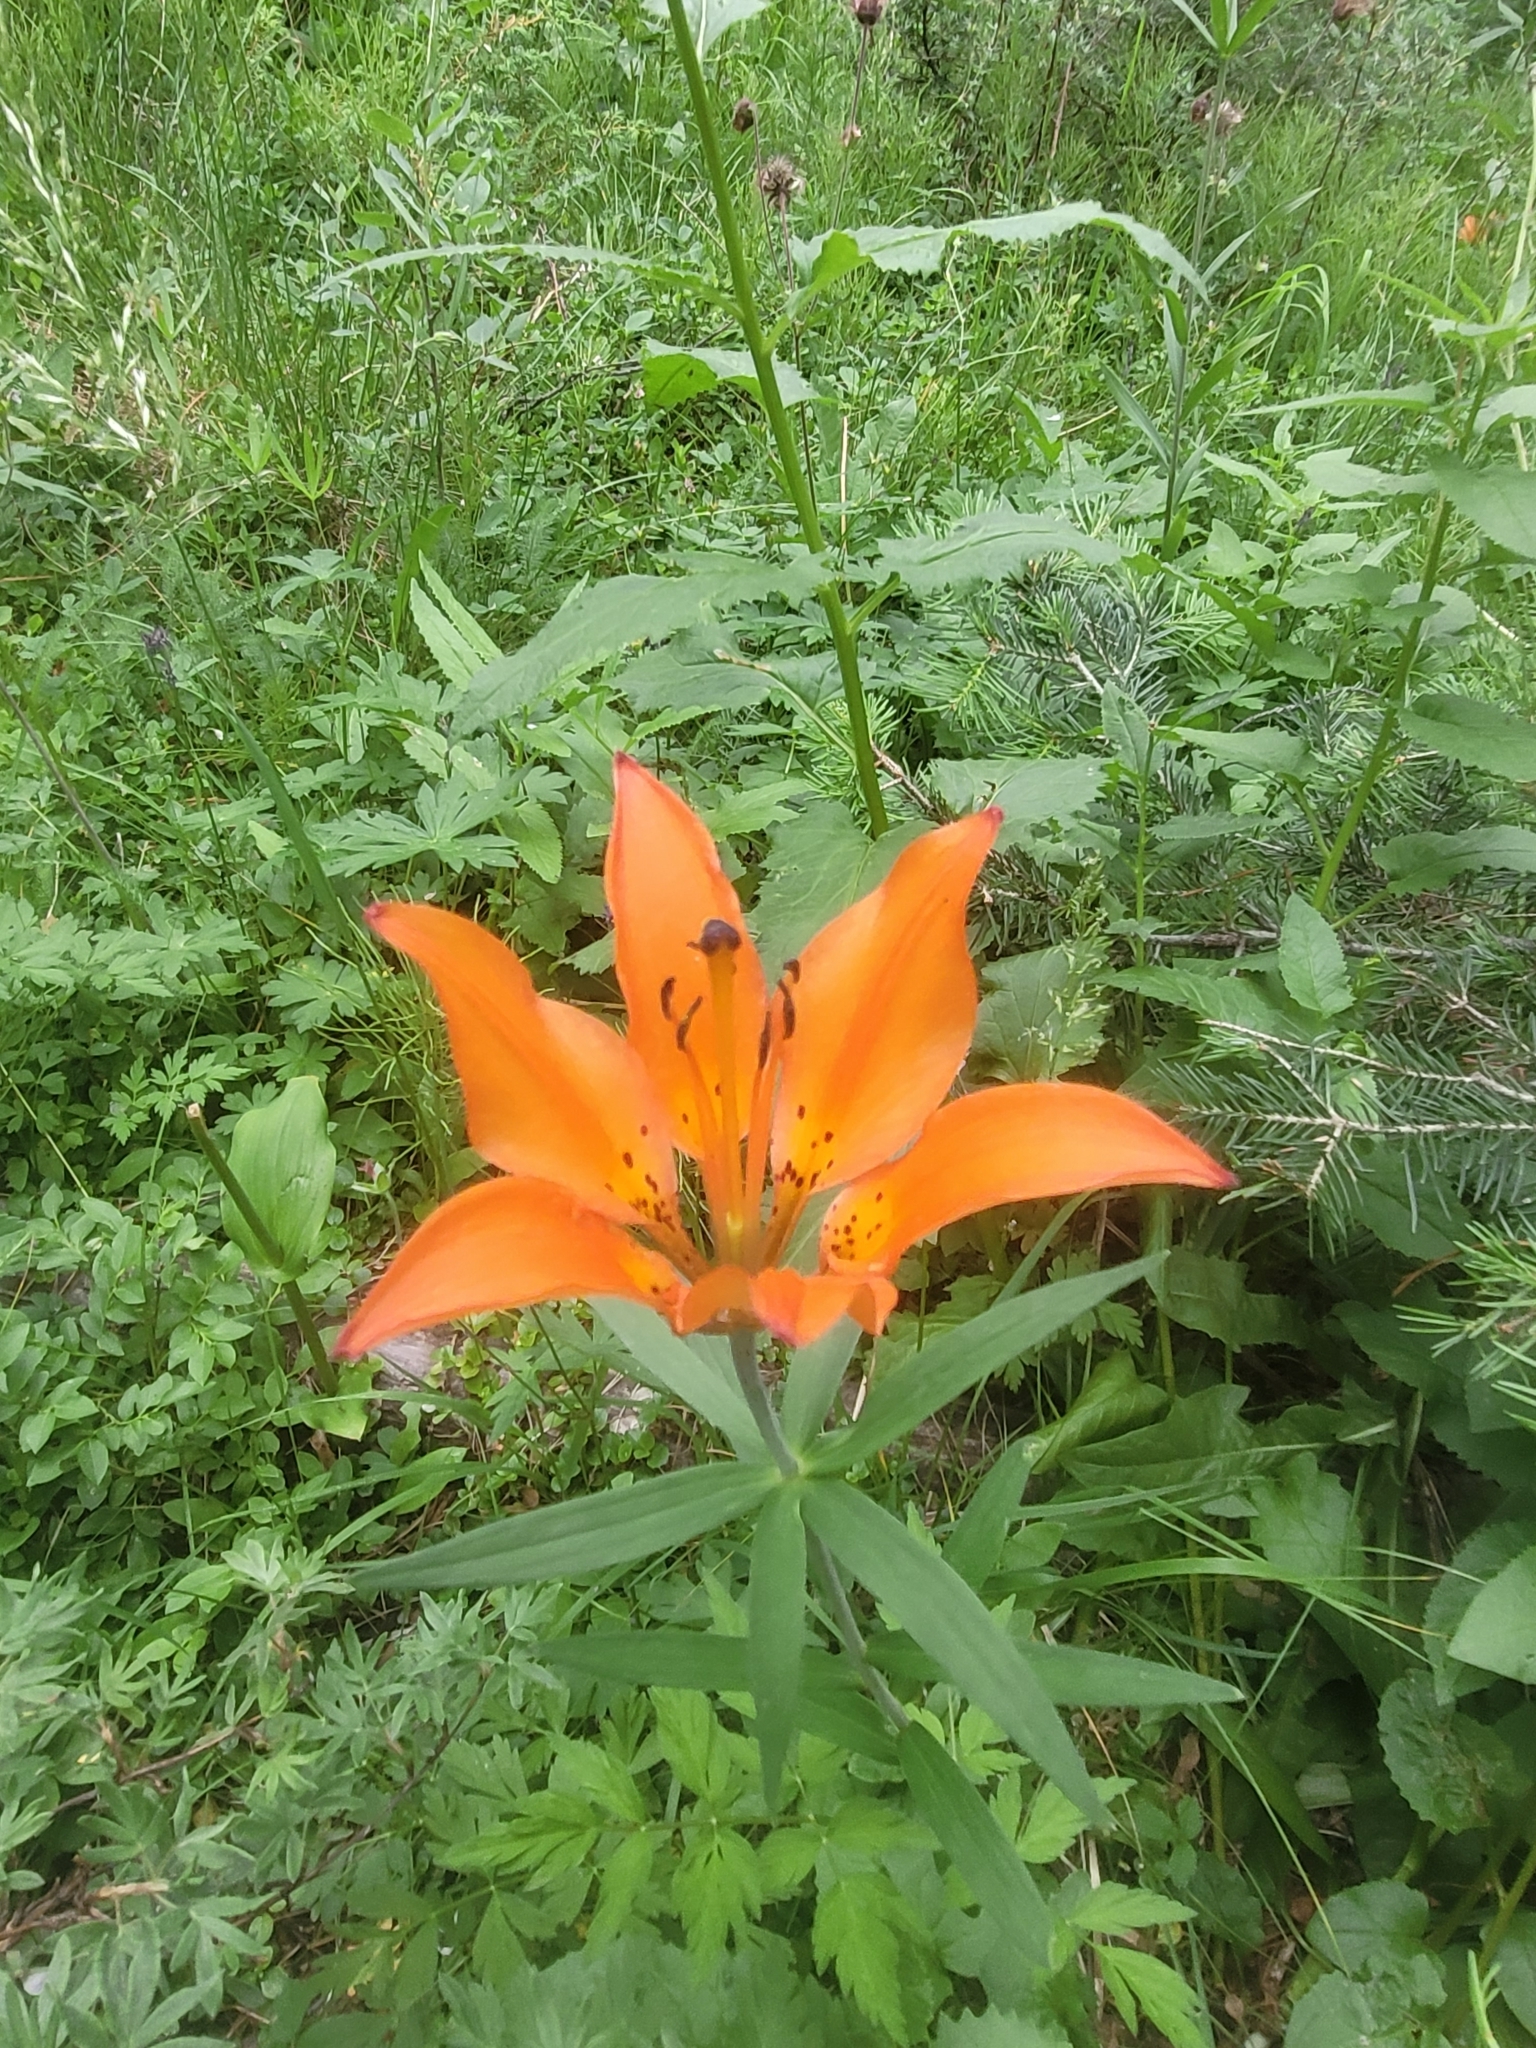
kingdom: Plantae
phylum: Tracheophyta
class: Liliopsida
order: Liliales
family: Liliaceae
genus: Lilium
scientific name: Lilium philadelphicum
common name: Red lily
